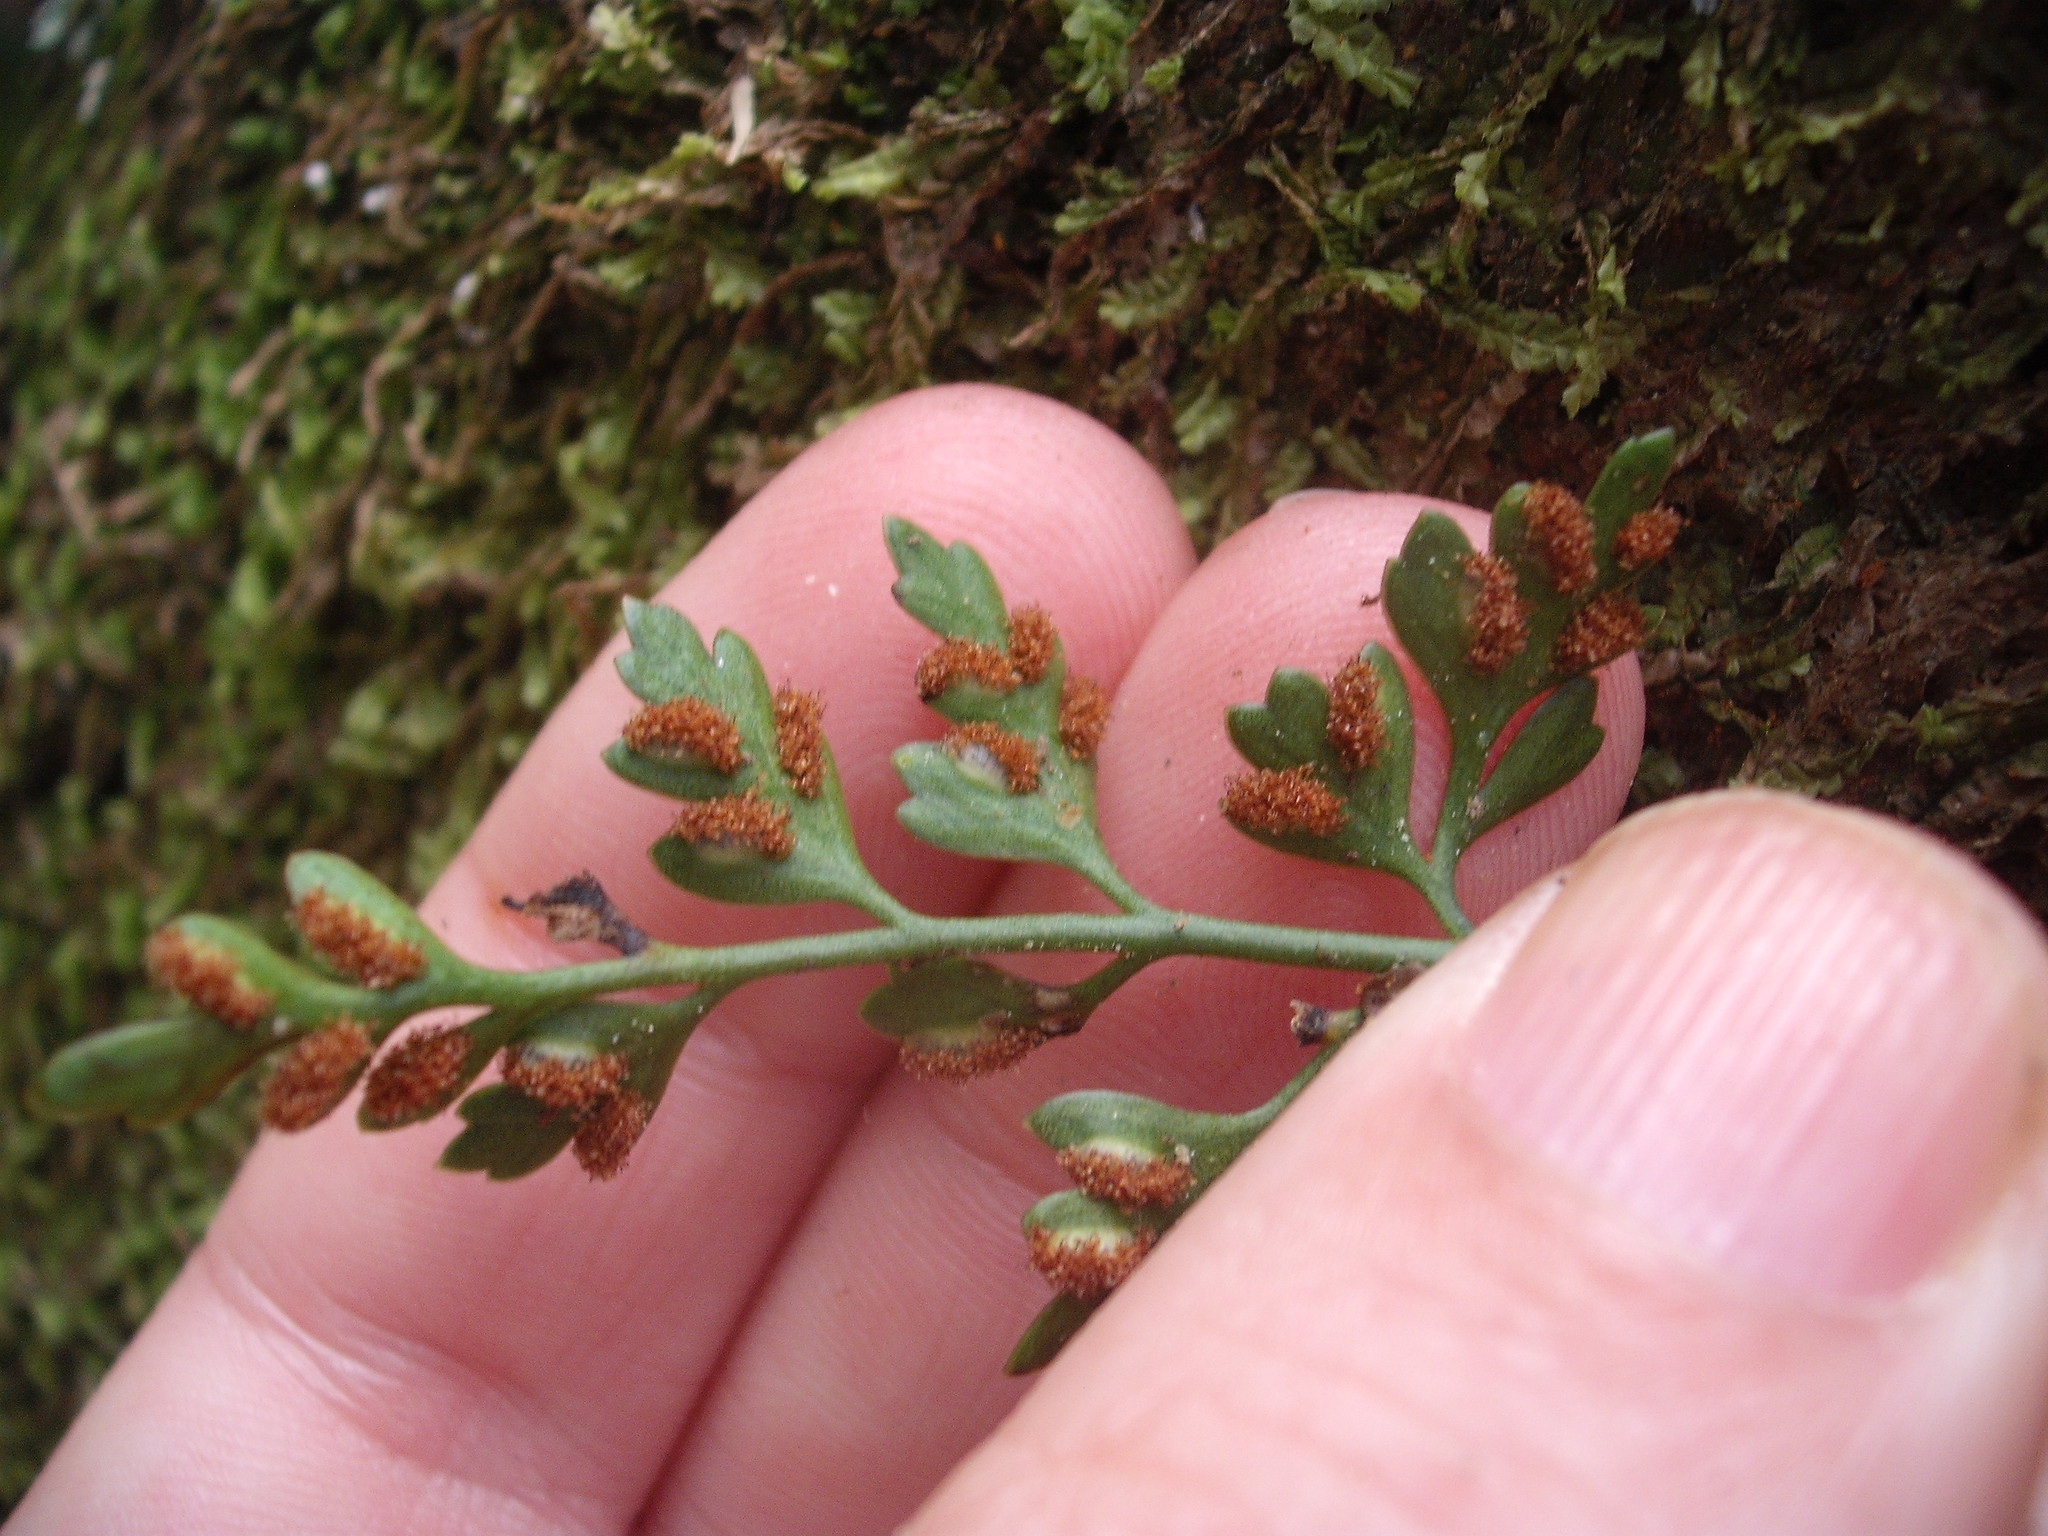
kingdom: Plantae
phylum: Tracheophyta
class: Polypodiopsida
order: Polypodiales
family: Aspleniaceae
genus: Asplenium
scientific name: Asplenium appendiculatum
